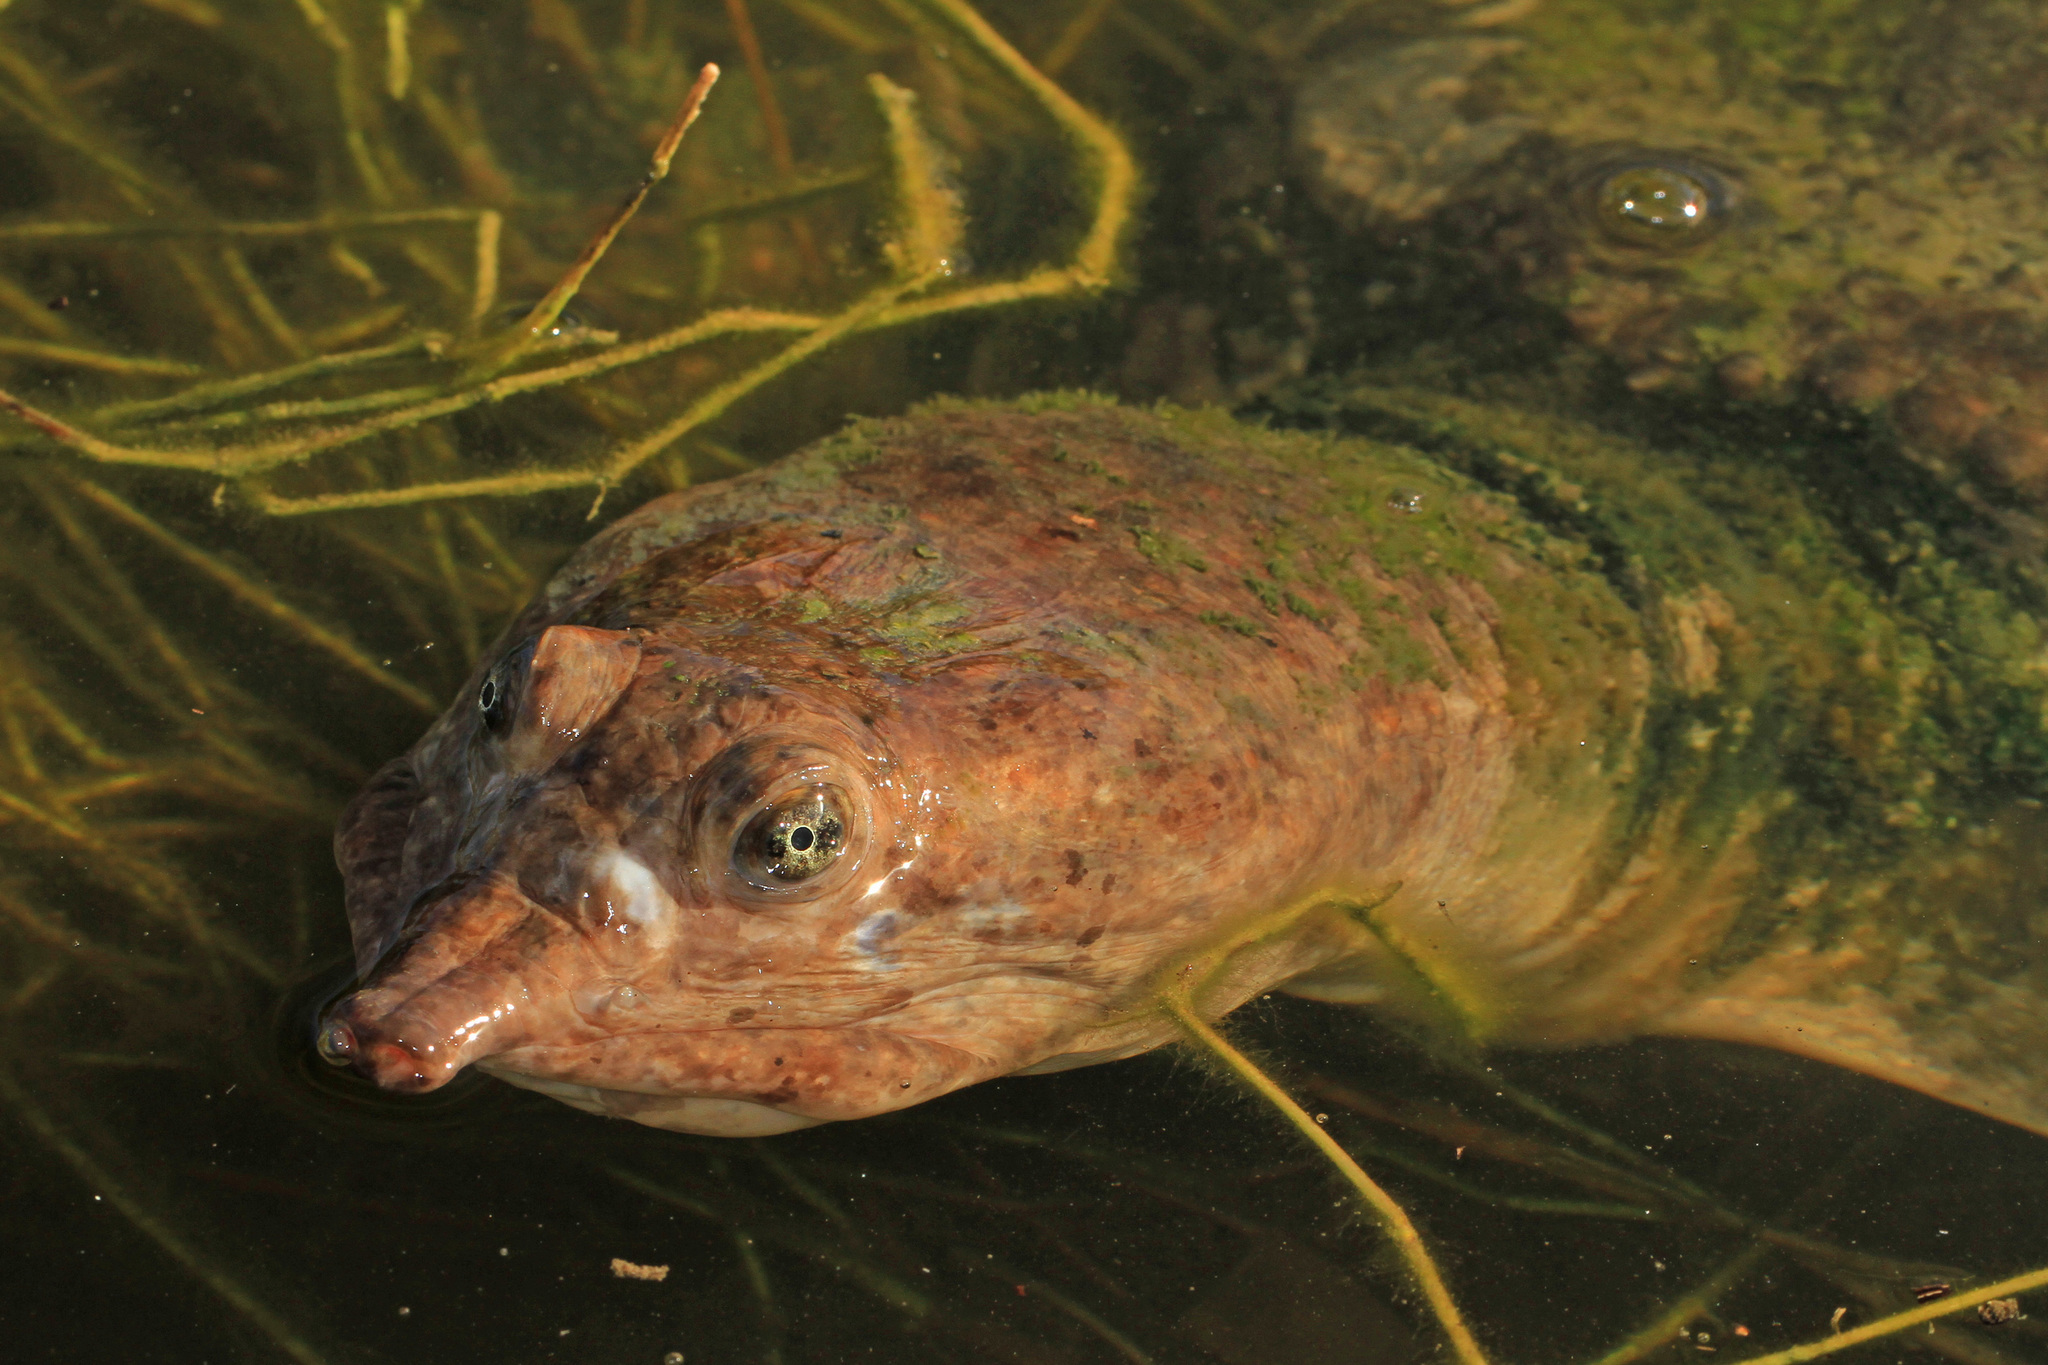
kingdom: Animalia
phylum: Chordata
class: Testudines
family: Trionychidae
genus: Apalone
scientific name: Apalone ferox
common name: Florida softshell turtle
